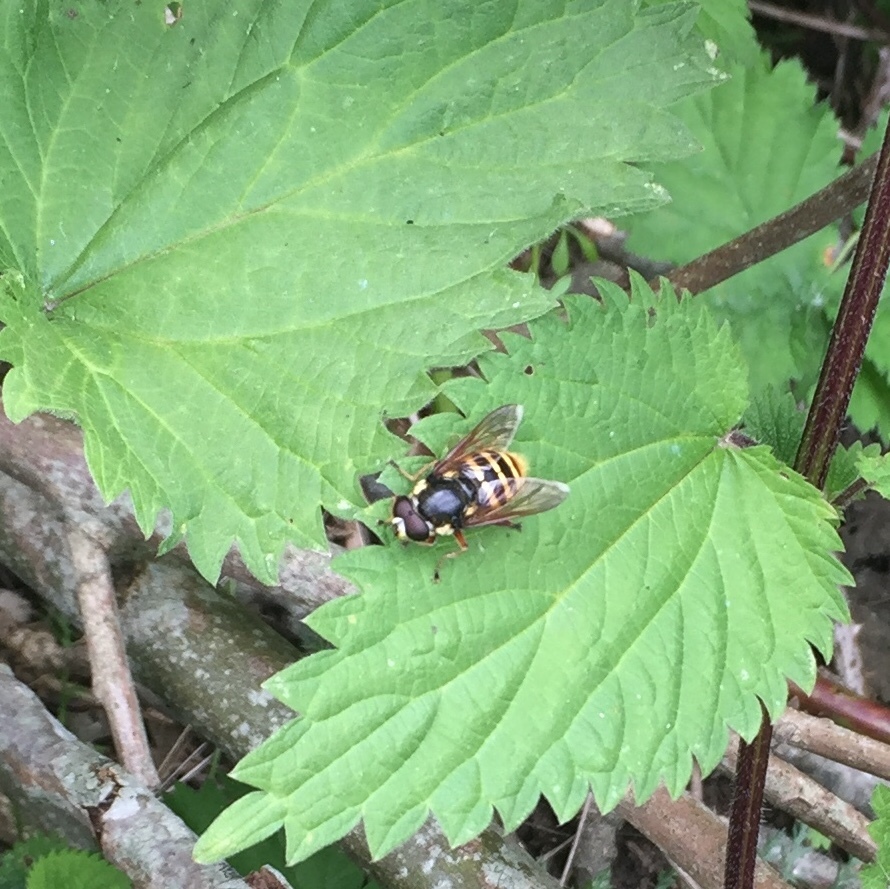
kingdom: Animalia
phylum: Arthropoda
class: Insecta
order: Diptera
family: Syrphidae
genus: Sericomyia
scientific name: Sericomyia silentis
